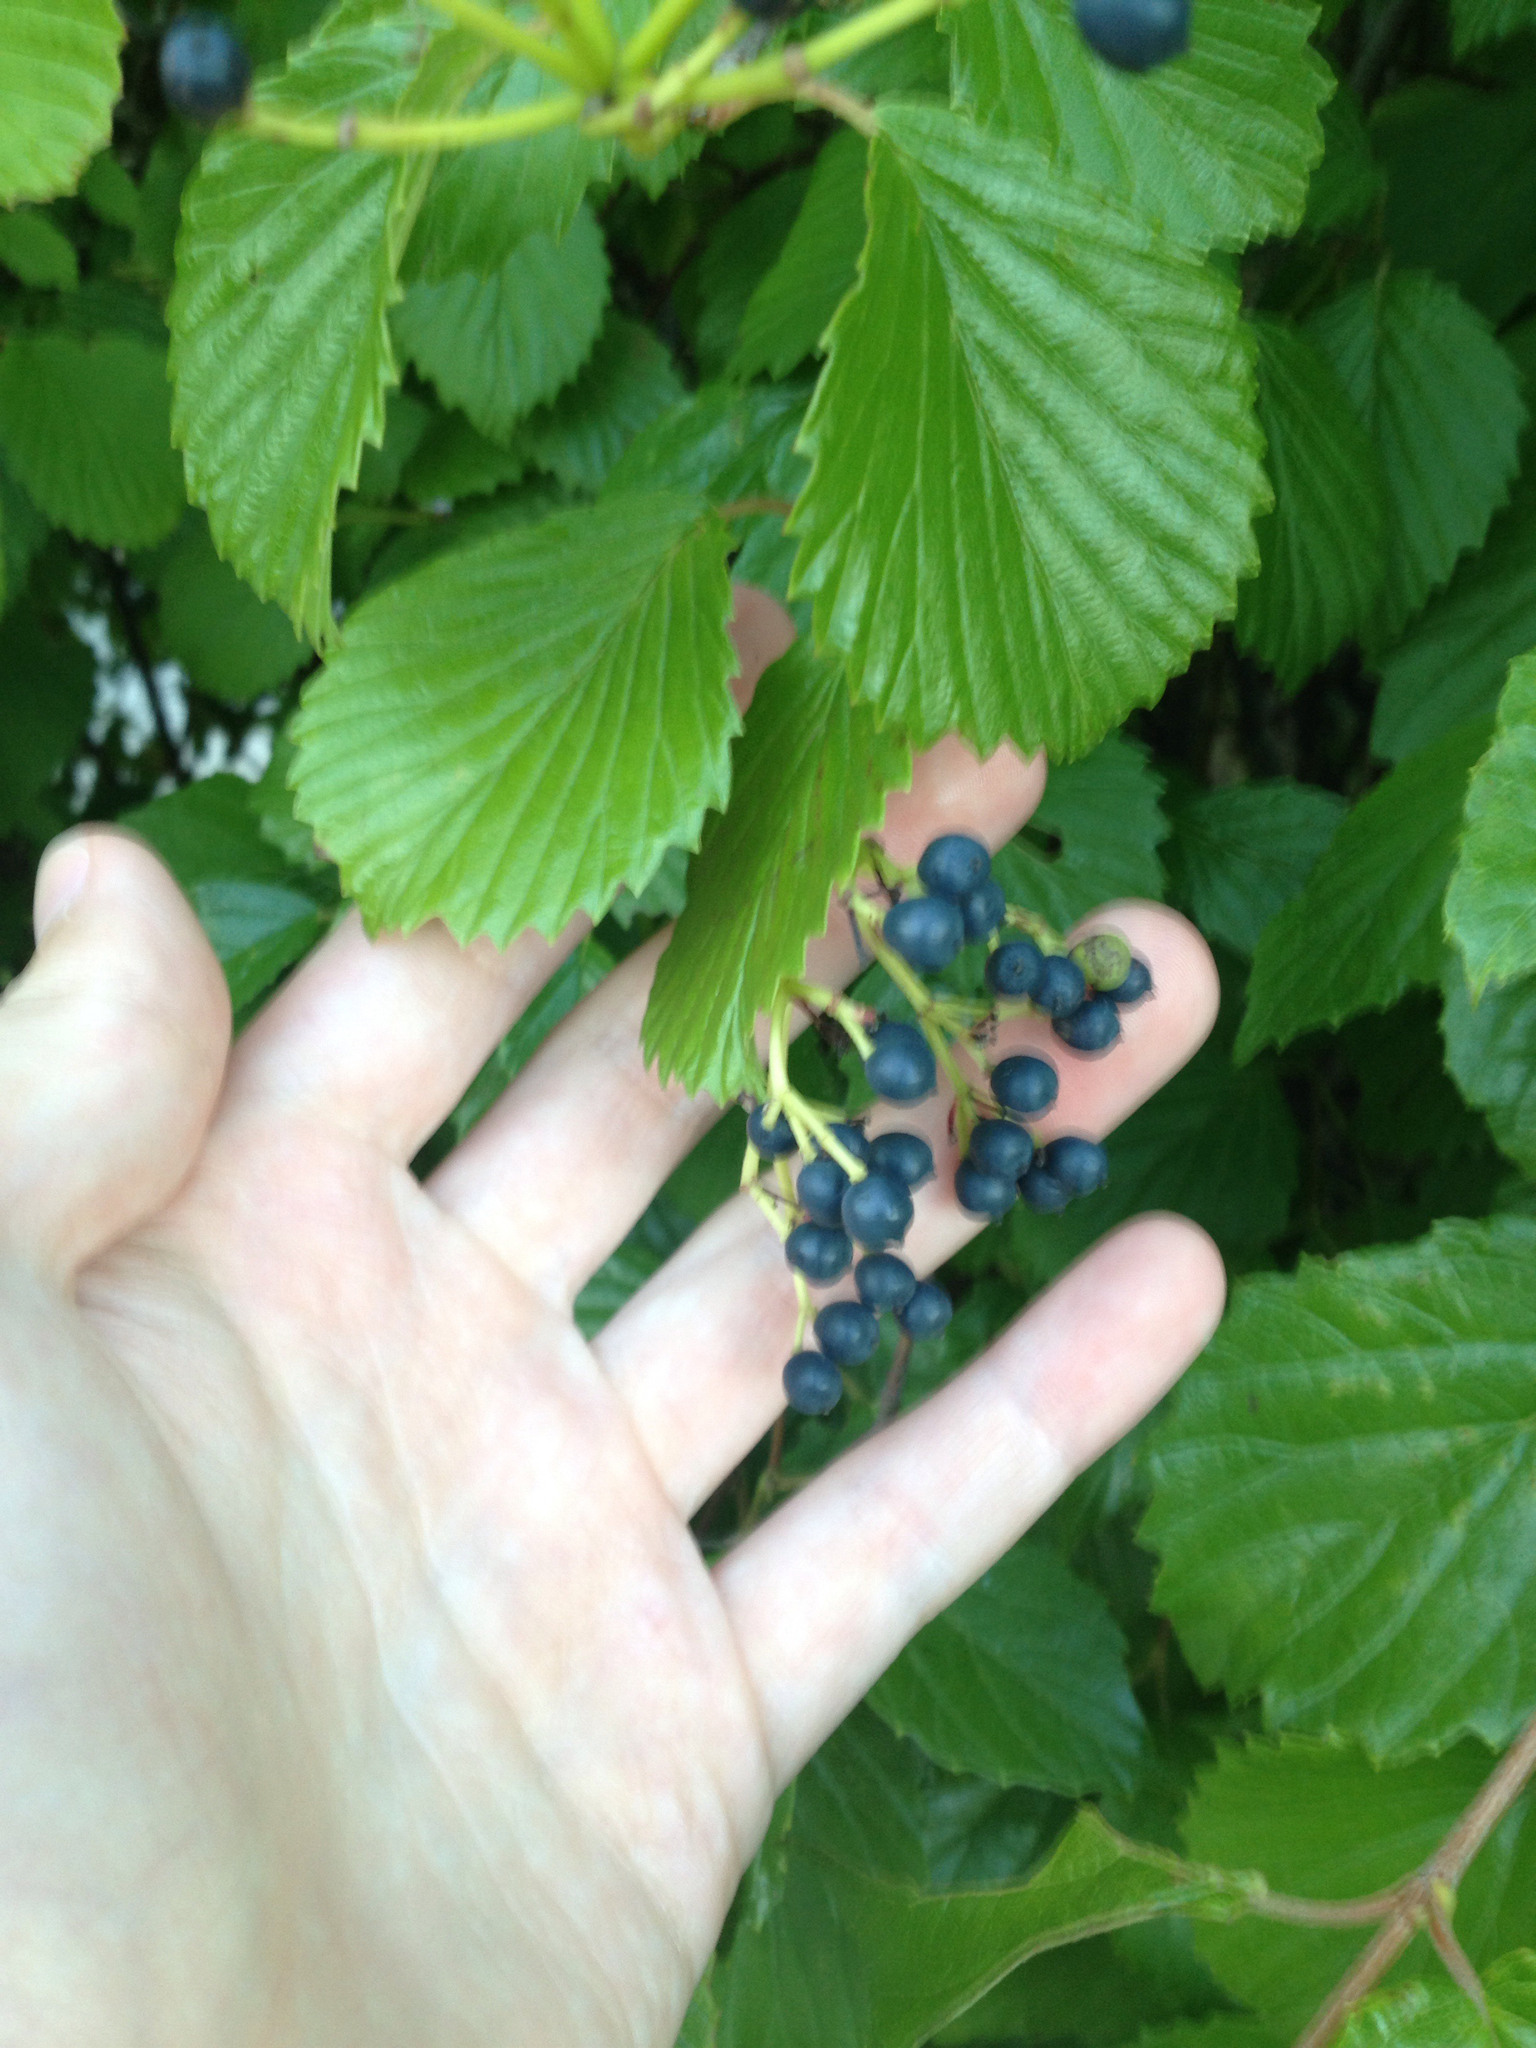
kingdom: Plantae
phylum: Tracheophyta
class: Magnoliopsida
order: Dipsacales
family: Viburnaceae
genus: Viburnum
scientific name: Viburnum dentatum
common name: Arrow-wood
